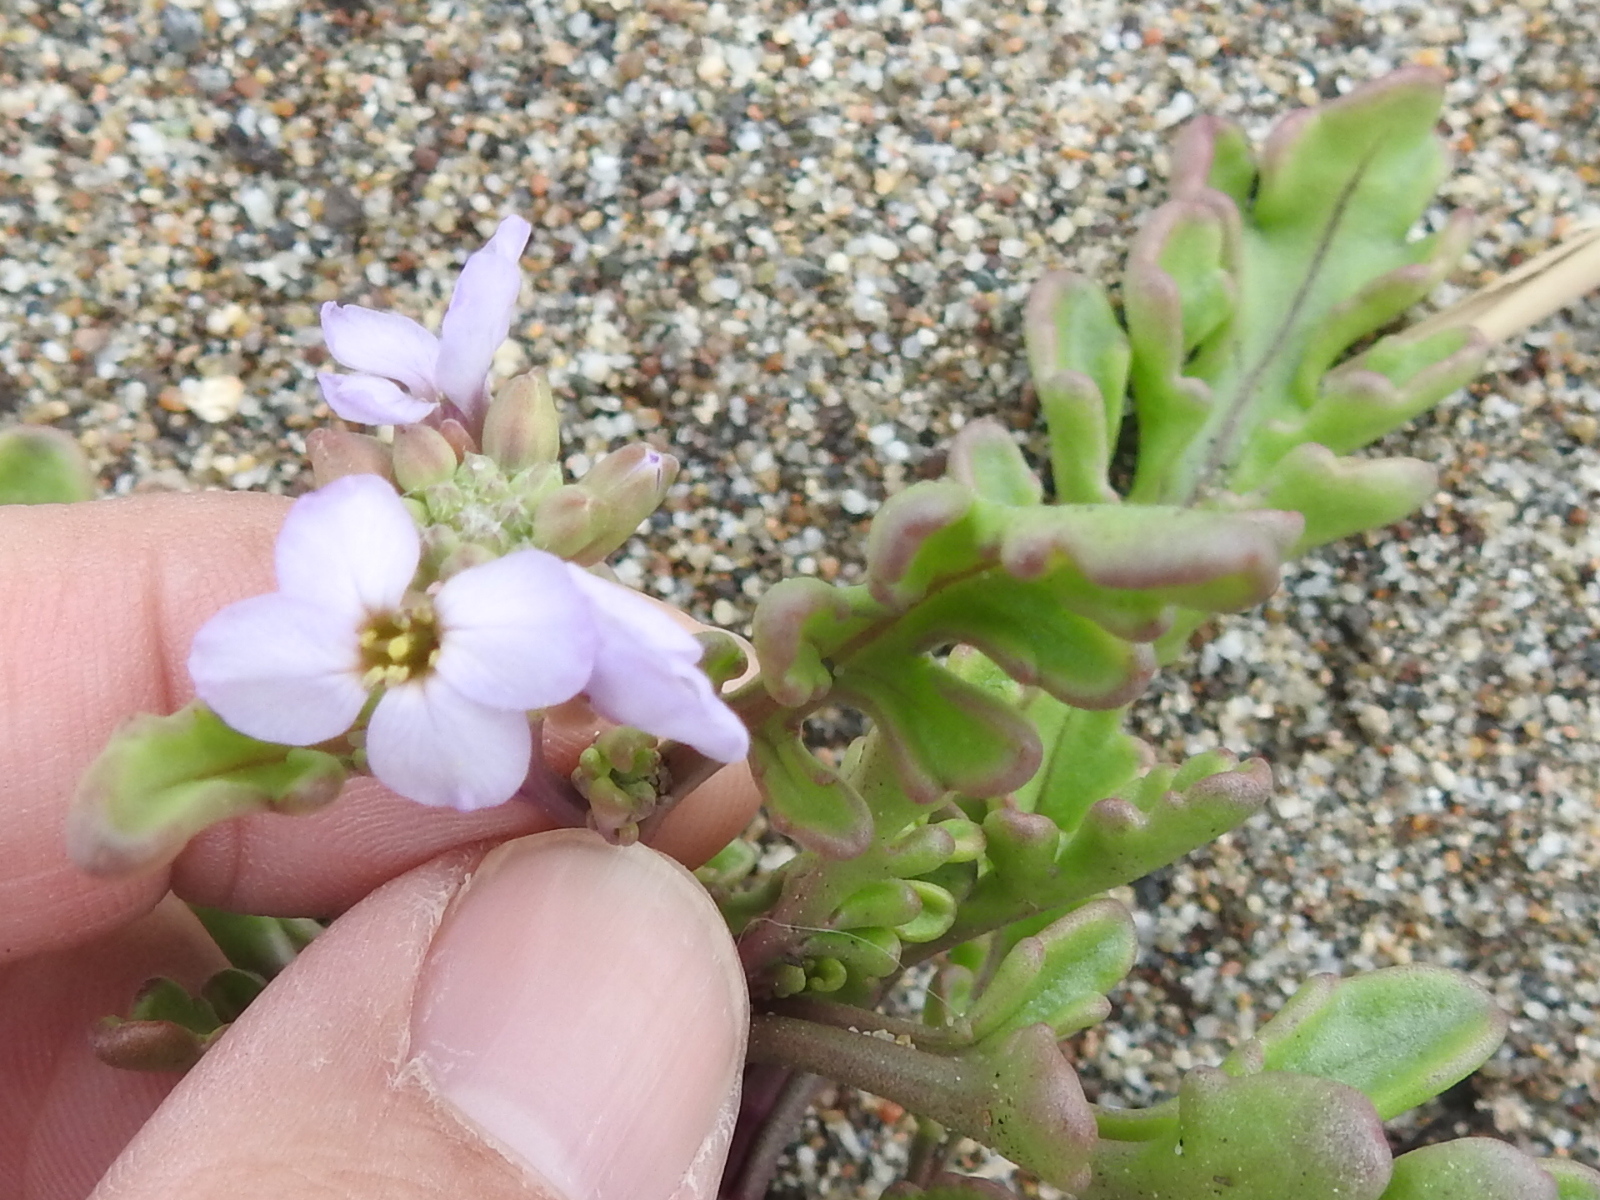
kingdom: Plantae
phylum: Tracheophyta
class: Magnoliopsida
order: Brassicales
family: Brassicaceae
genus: Cakile
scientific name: Cakile maritima
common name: Sea rocket
